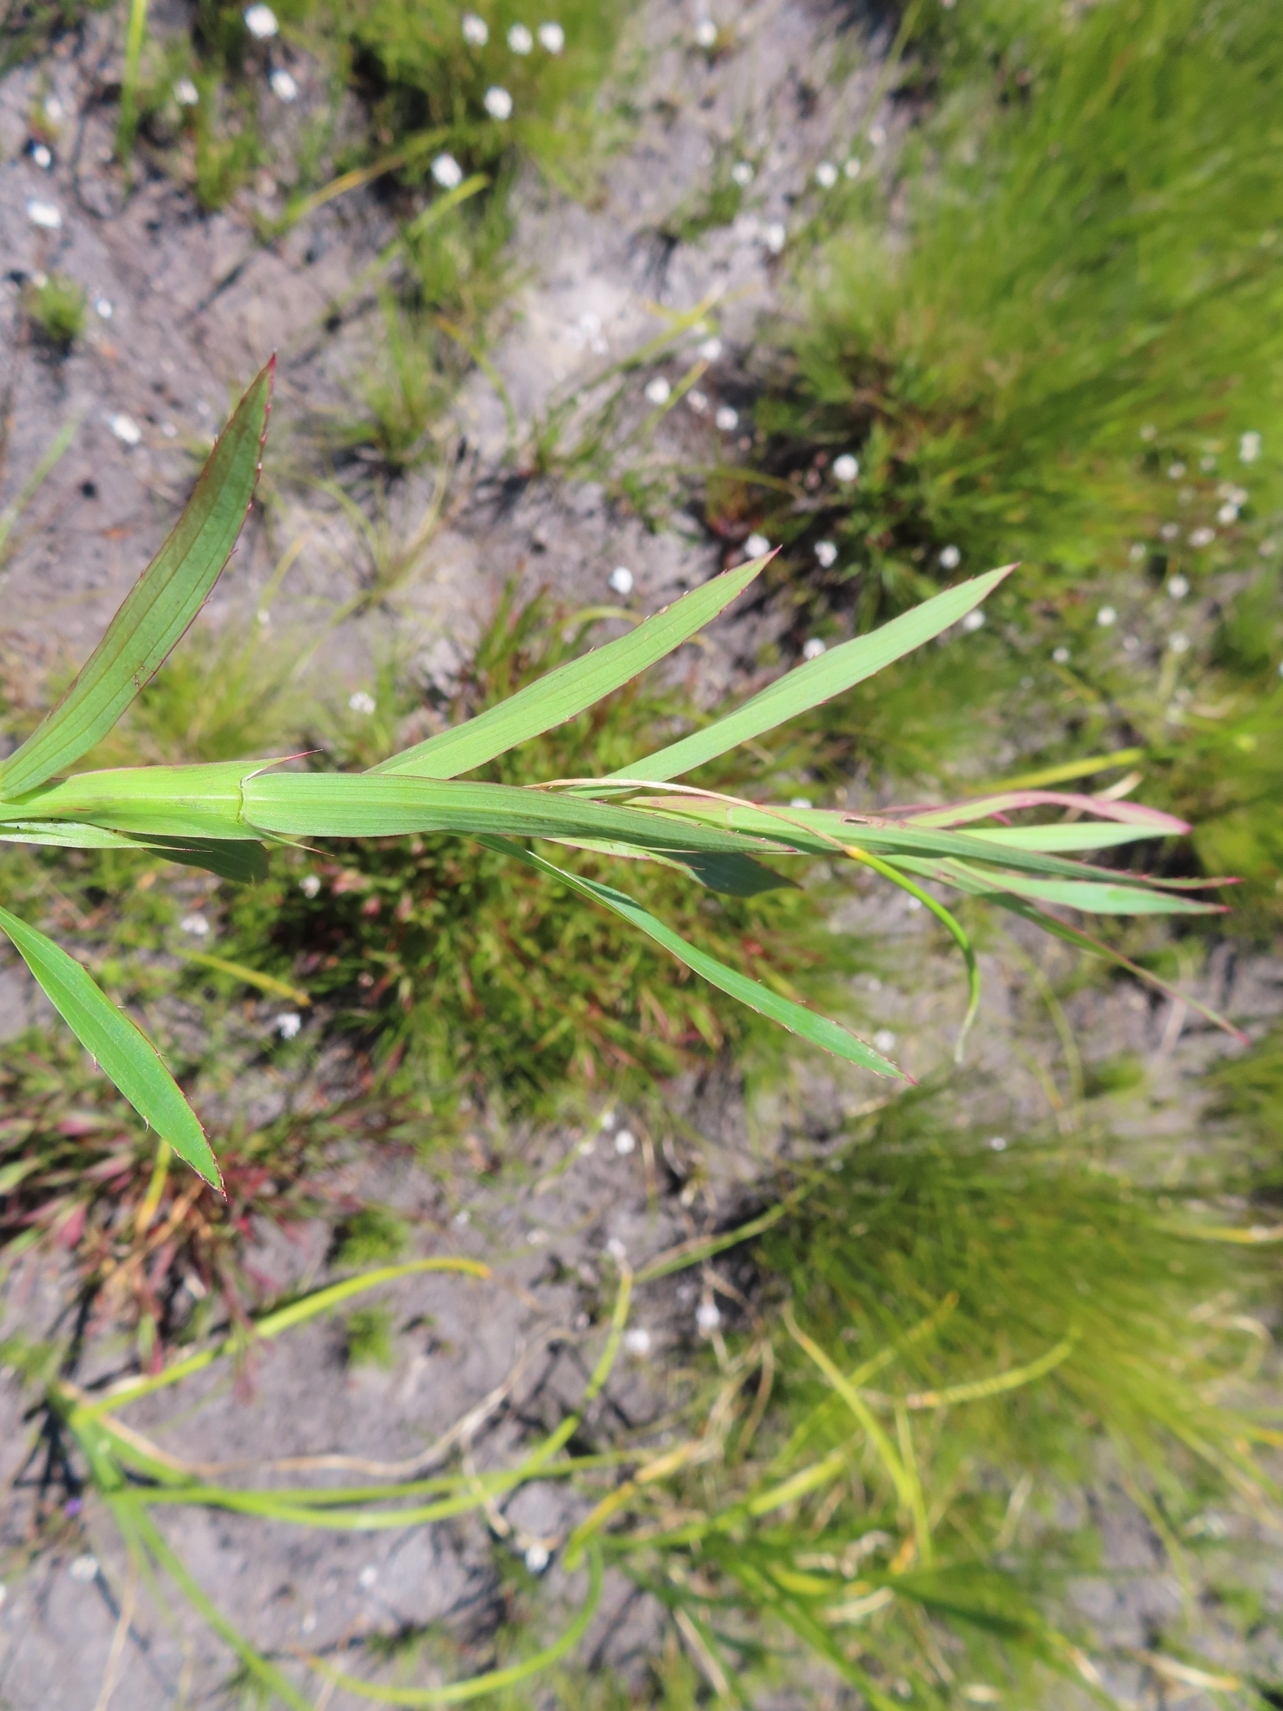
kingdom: Plantae
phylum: Tracheophyta
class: Magnoliopsida
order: Rosales
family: Rosaceae
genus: Cliffortia
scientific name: Cliffortia graminea
